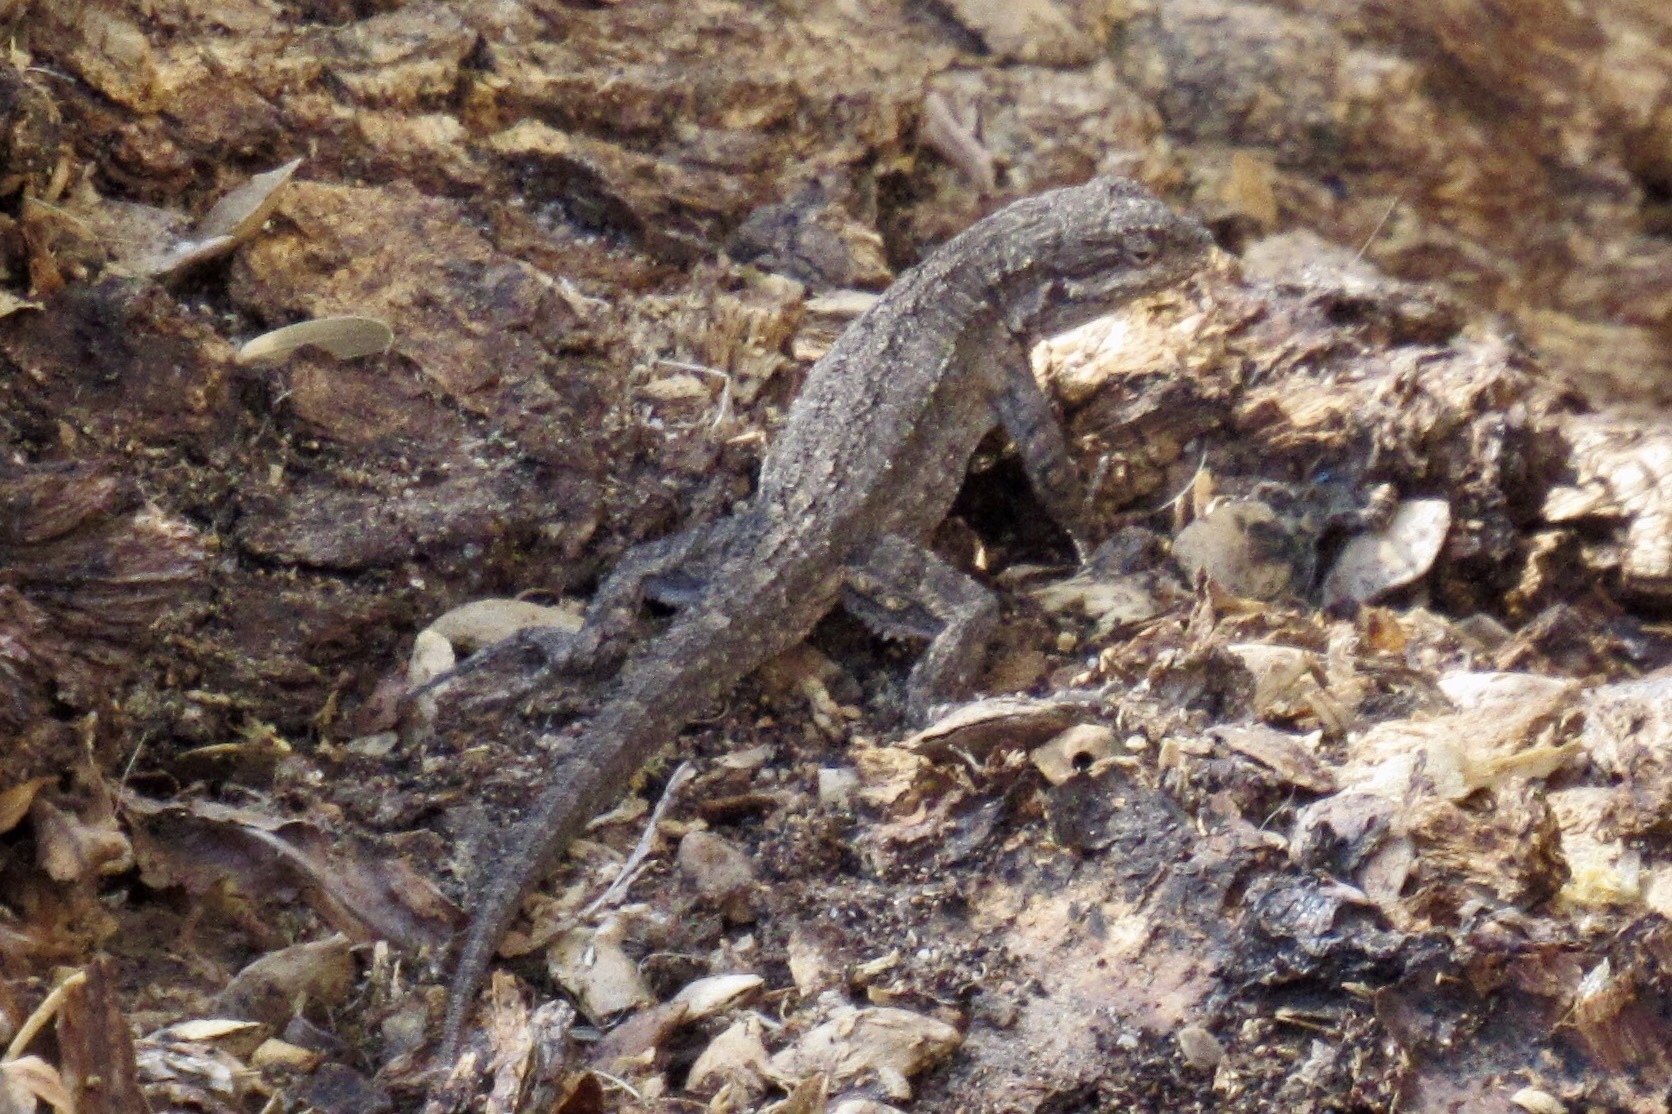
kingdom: Animalia
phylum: Chordata
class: Squamata
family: Phrynosomatidae
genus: Urosaurus
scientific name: Urosaurus ornatus
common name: Ornate tree lizard
